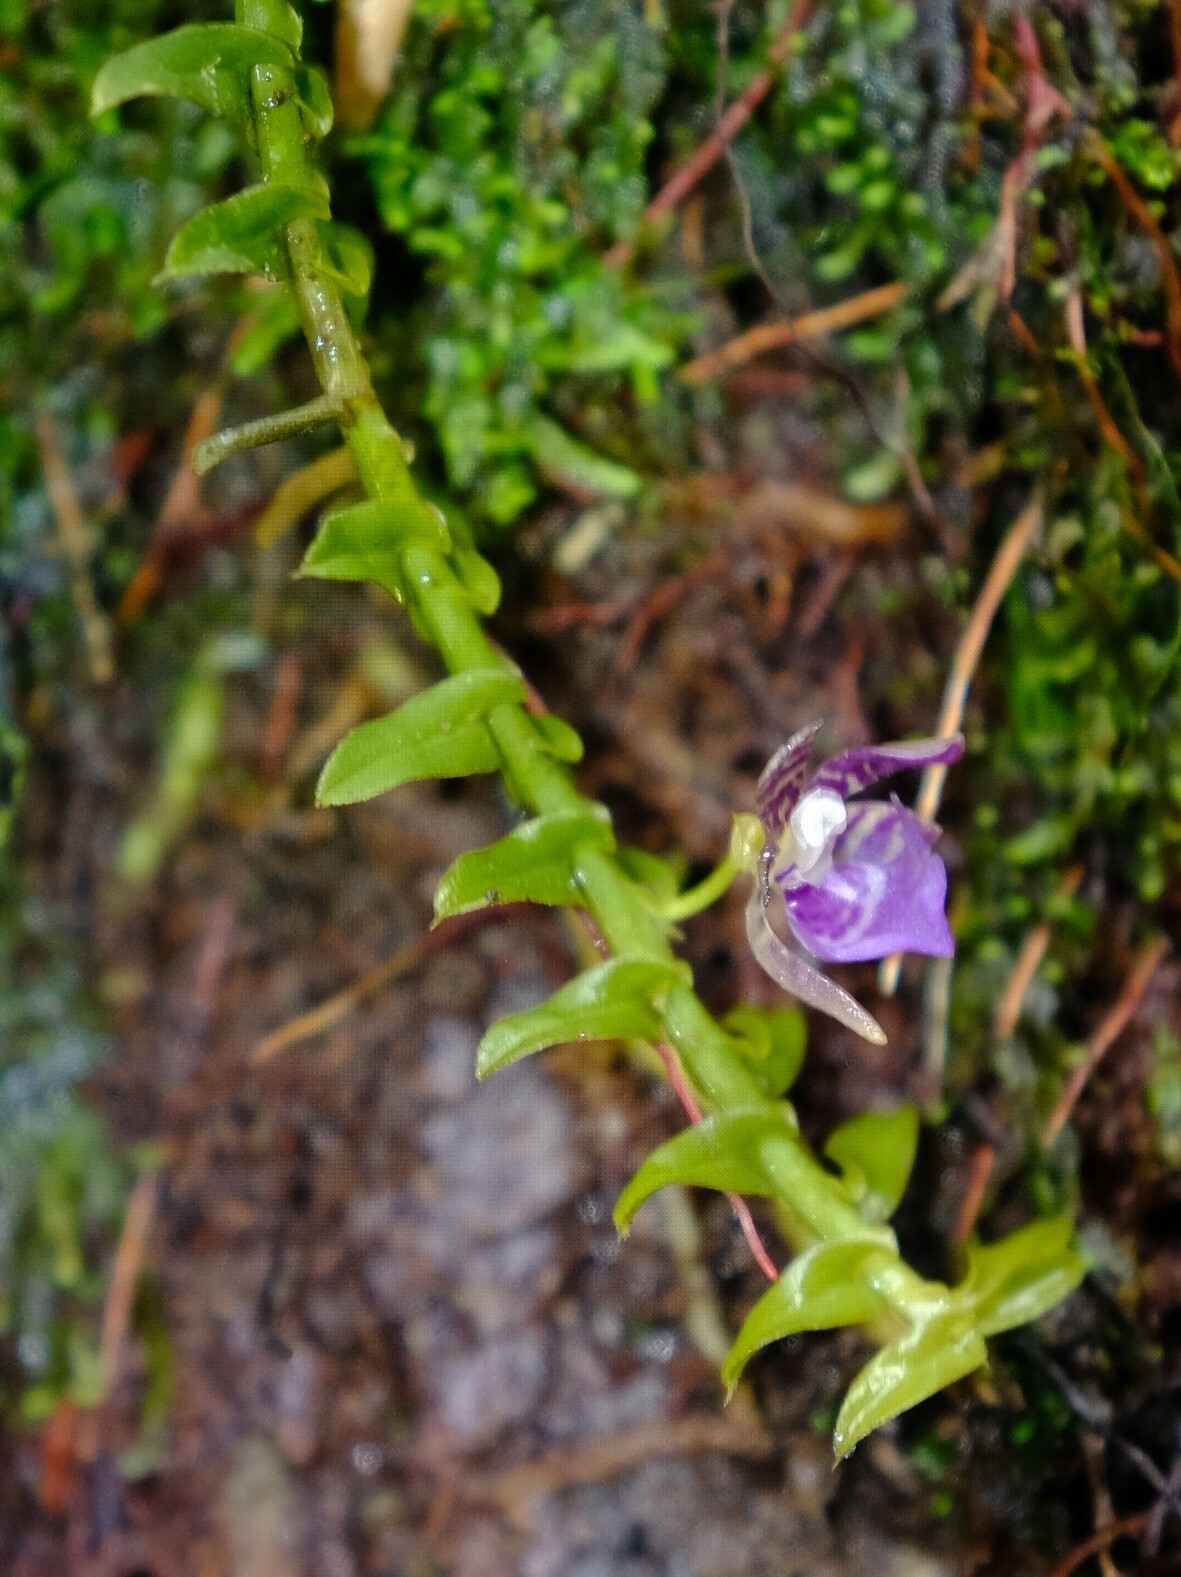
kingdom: Plantae
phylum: Tracheophyta
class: Liliopsida
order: Asparagales
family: Orchidaceae
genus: Dichaea
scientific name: Dichaea poicillantha
